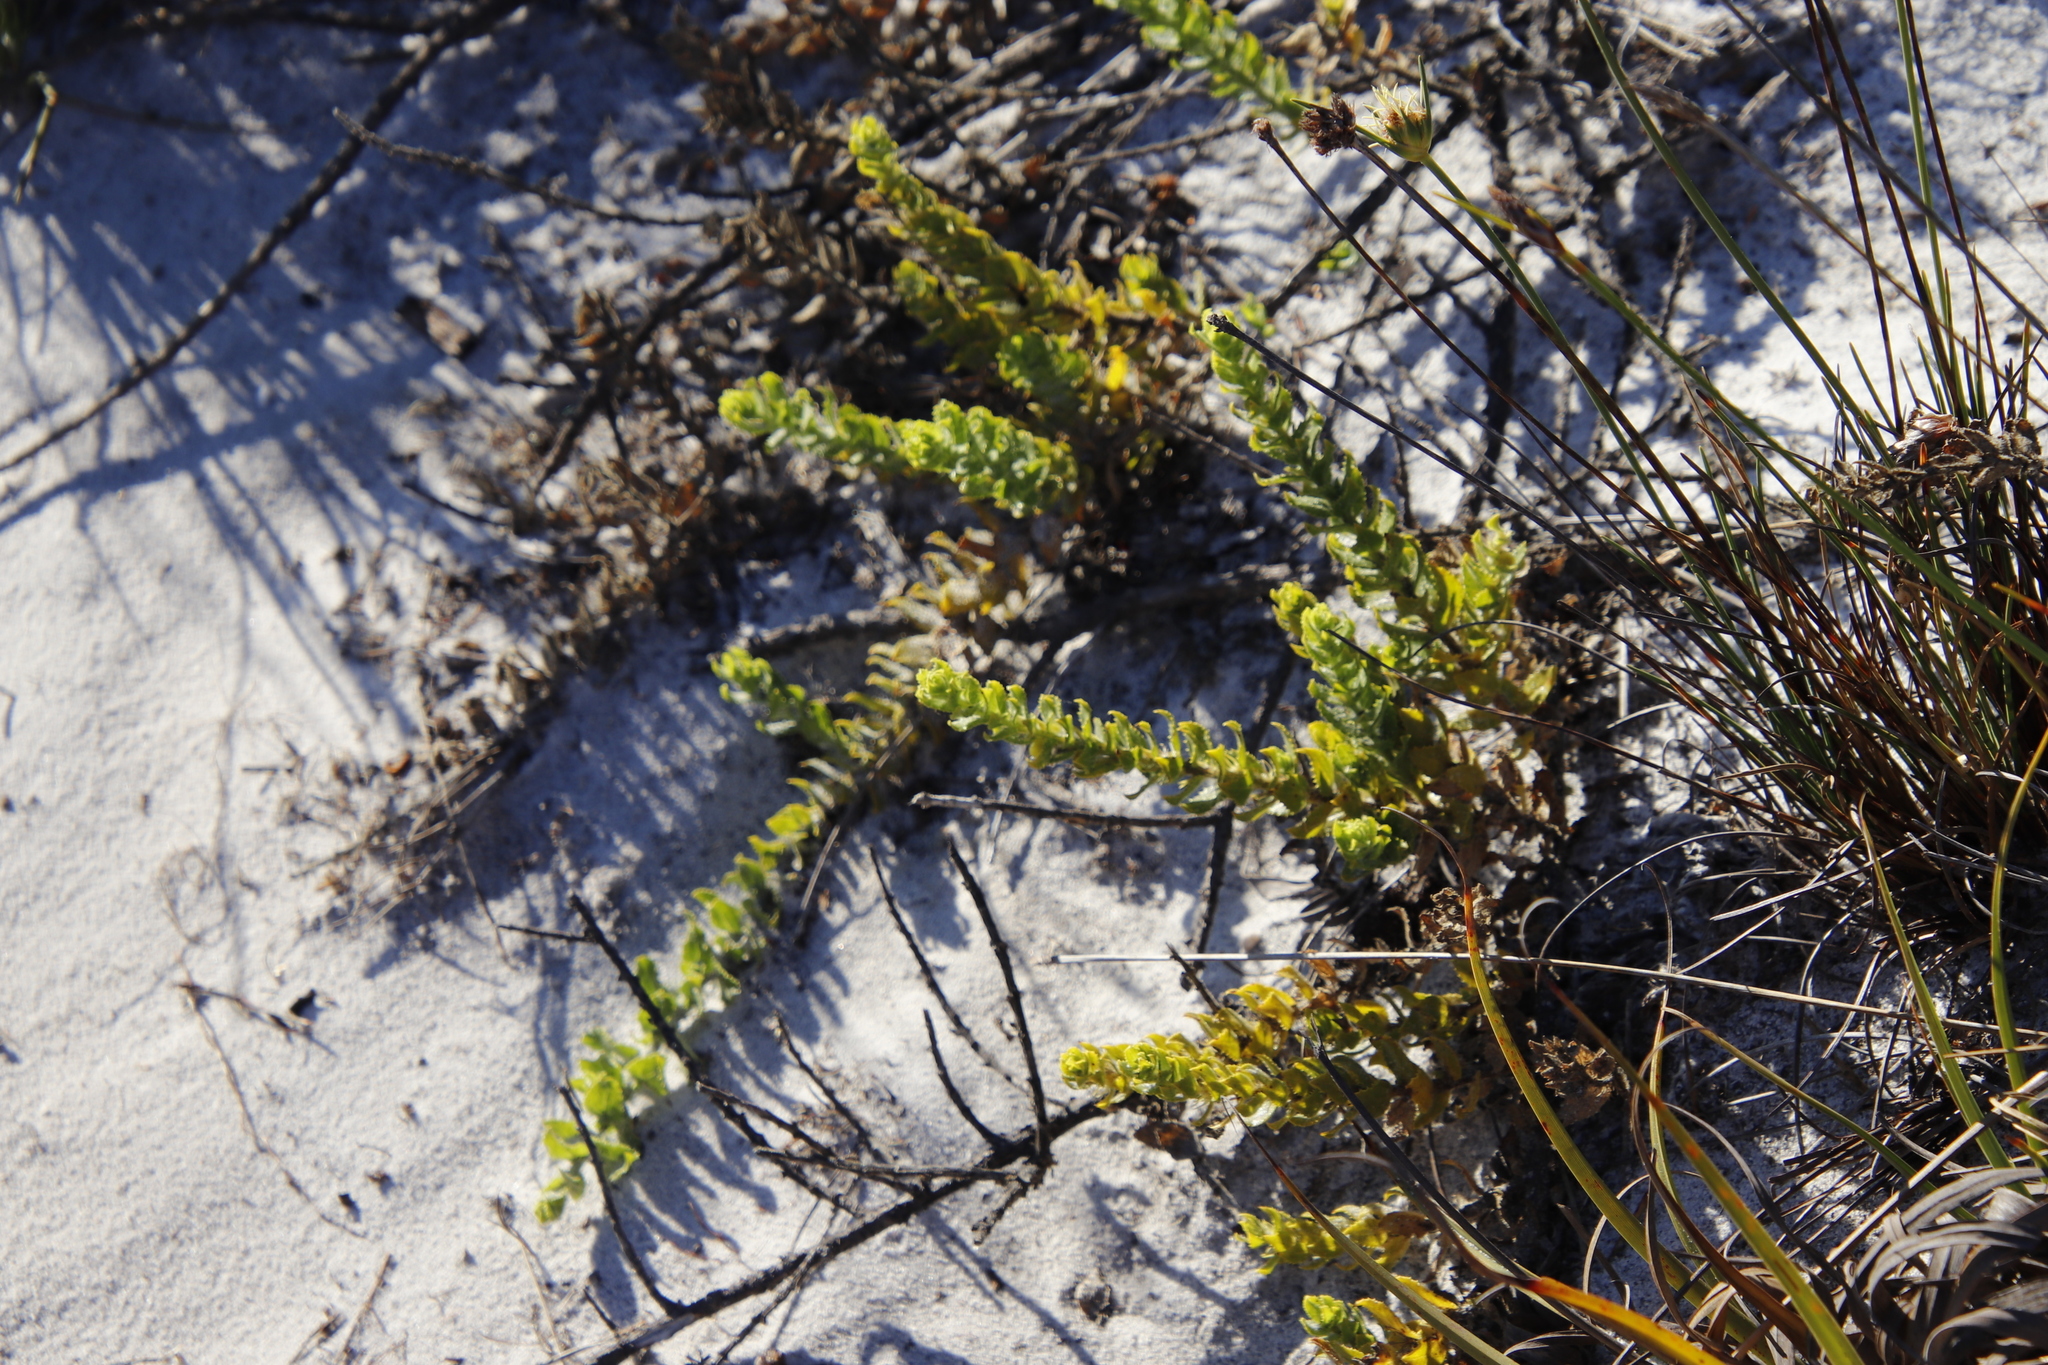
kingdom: Plantae
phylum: Tracheophyta
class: Magnoliopsida
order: Lamiales
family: Scrophulariaceae
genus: Oftia
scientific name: Oftia africana
